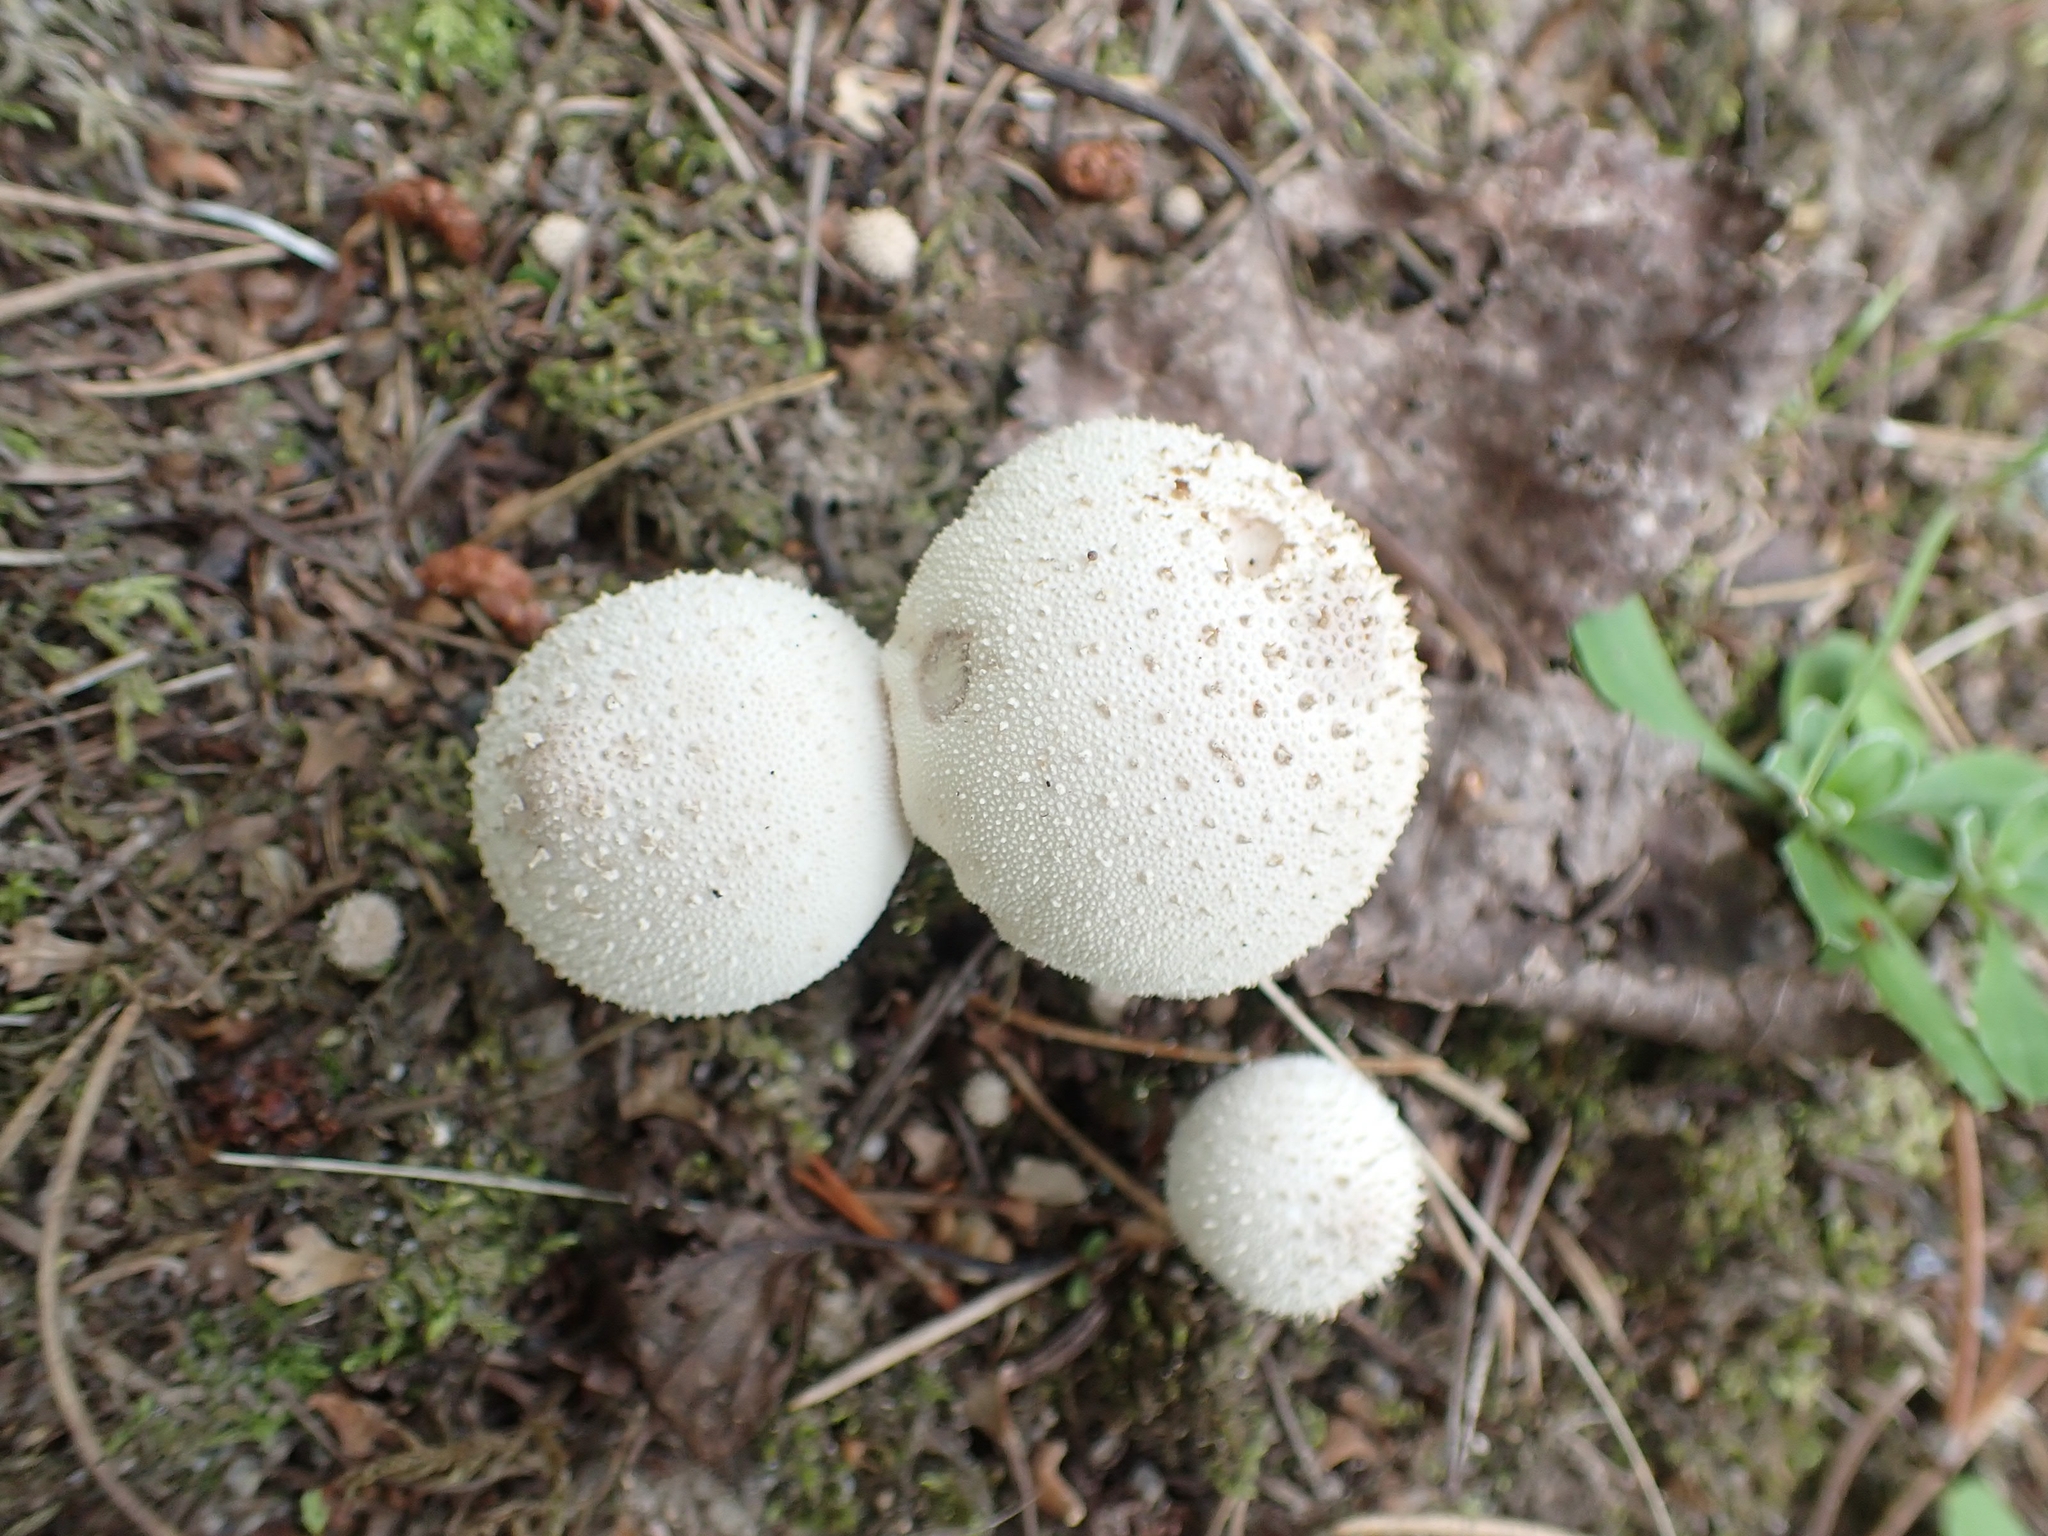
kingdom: Fungi
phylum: Basidiomycota
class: Agaricomycetes
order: Agaricales
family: Lycoperdaceae
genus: Lycoperdon
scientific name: Lycoperdon perlatum
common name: Common puffball
